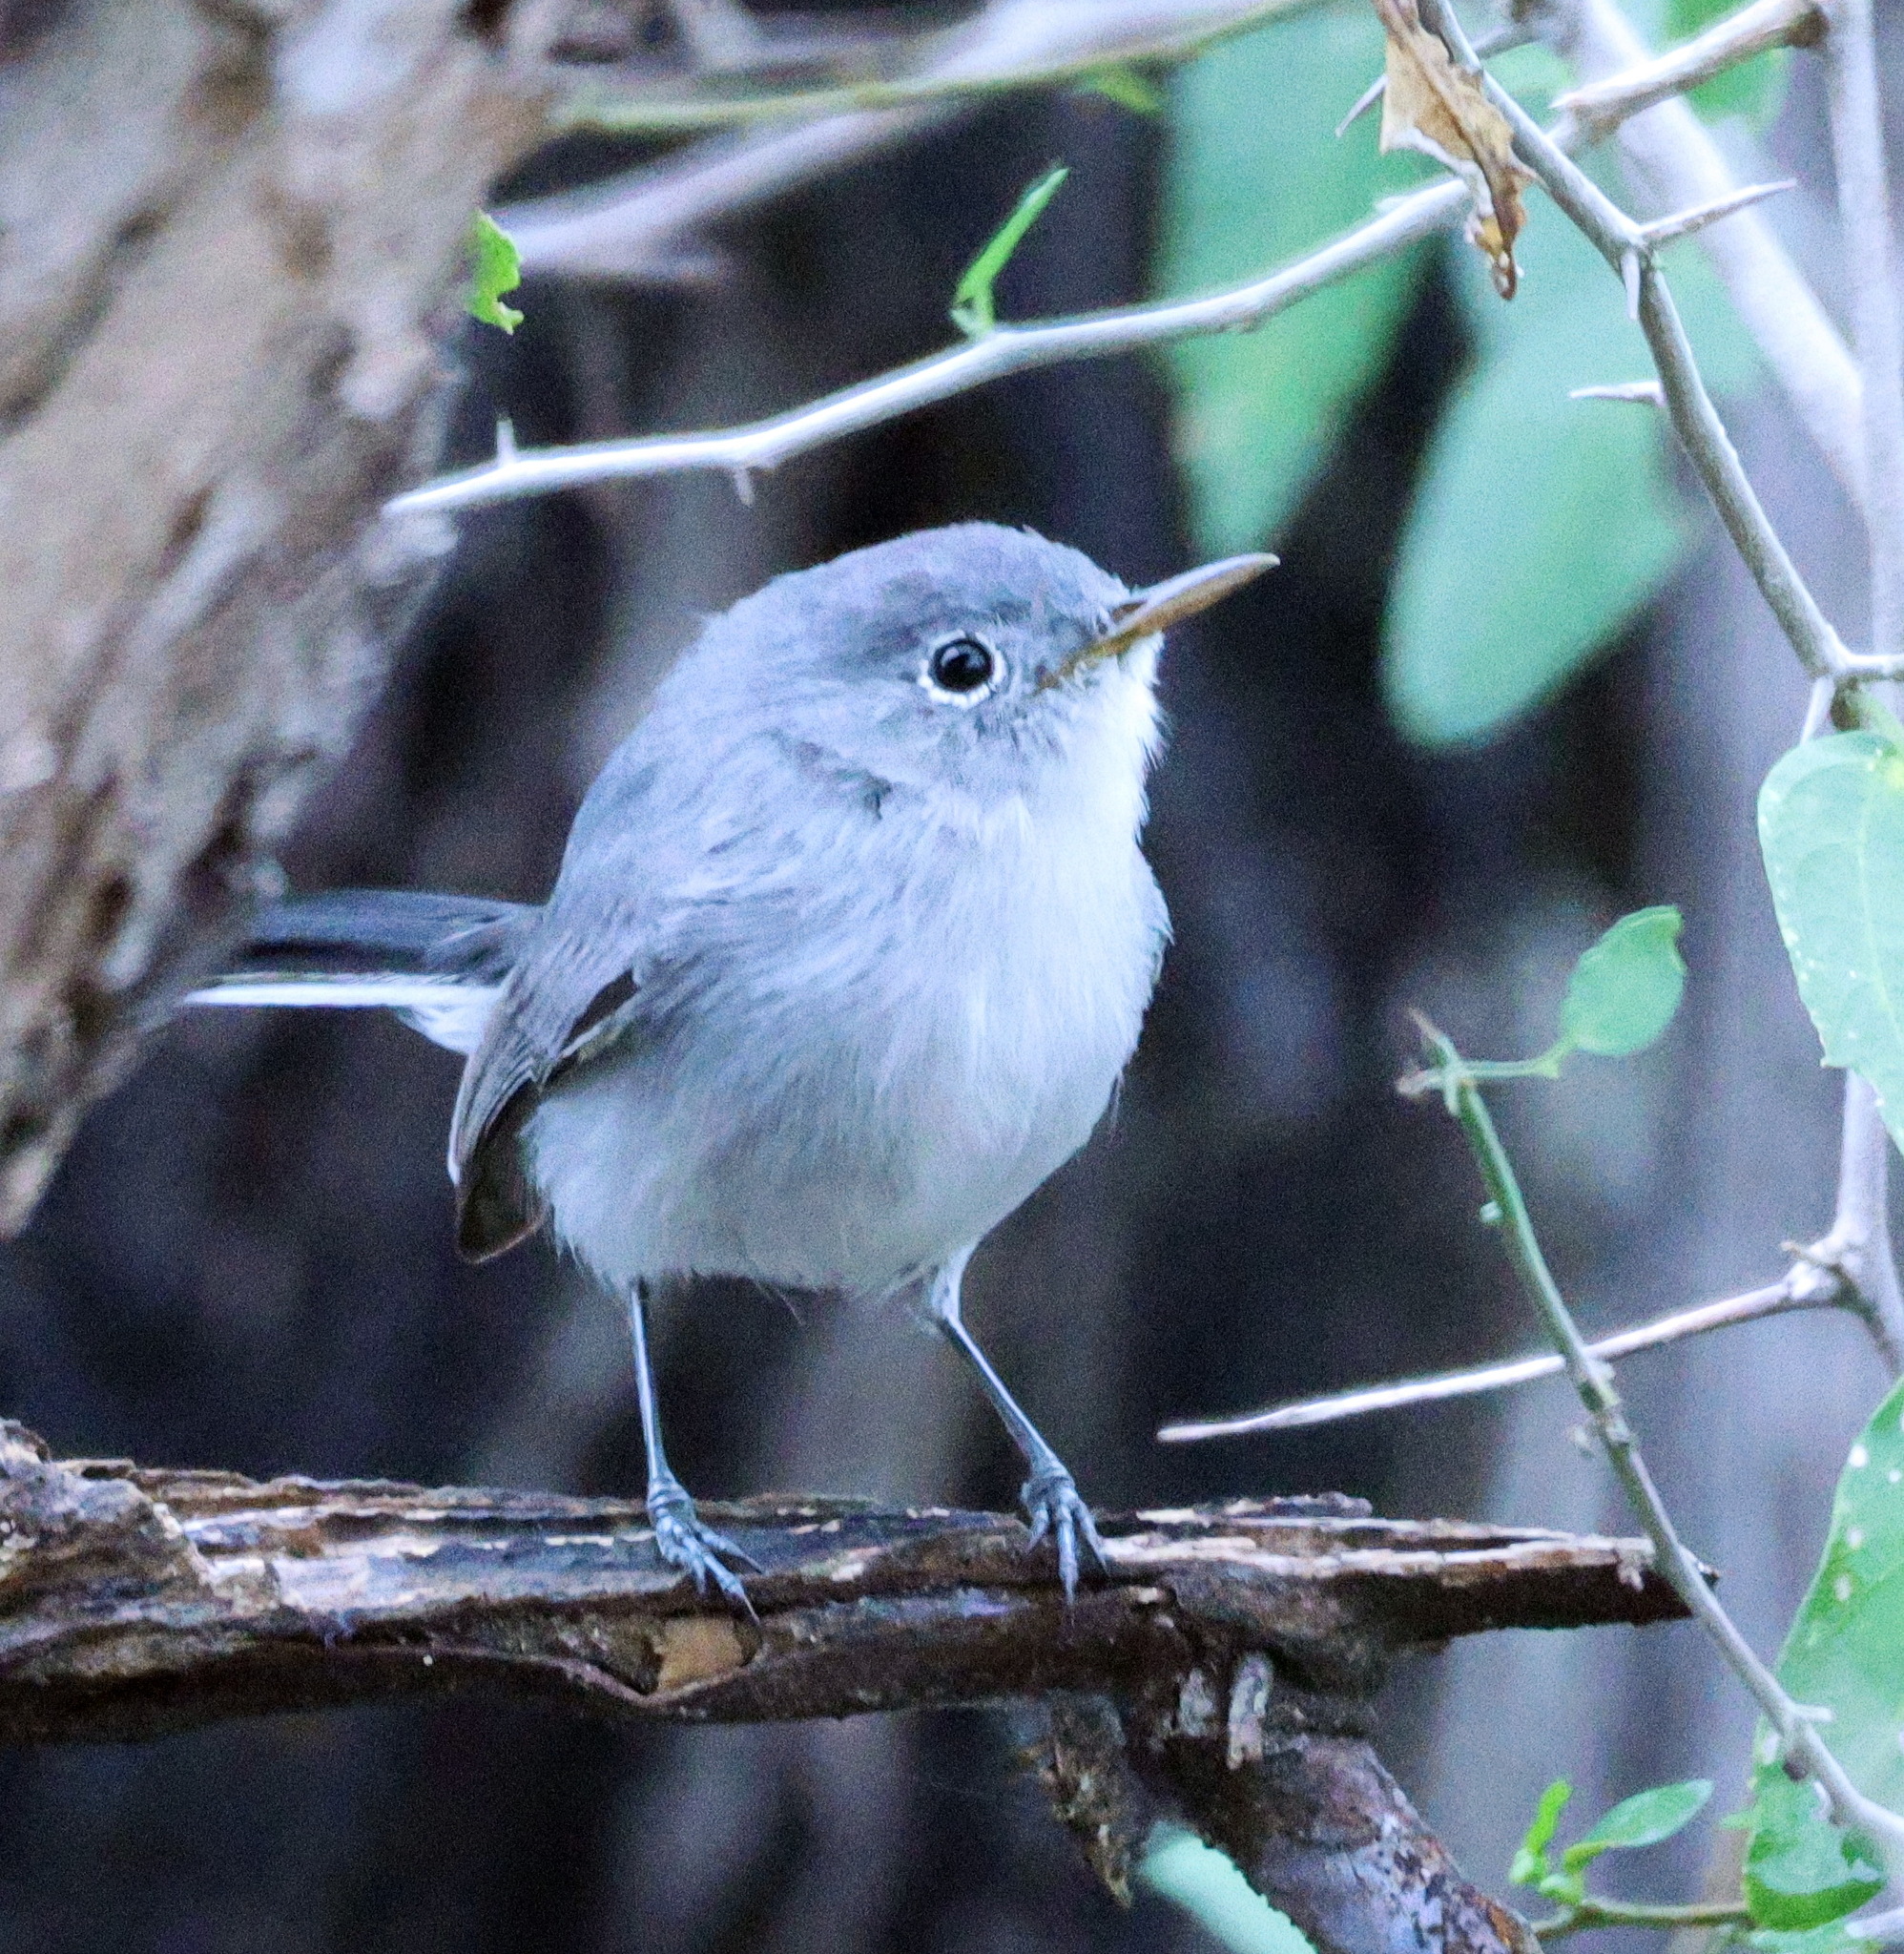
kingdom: Animalia
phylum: Chordata
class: Aves
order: Passeriformes
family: Polioptilidae
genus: Polioptila
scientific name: Polioptila caerulea
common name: Blue-gray gnatcatcher
